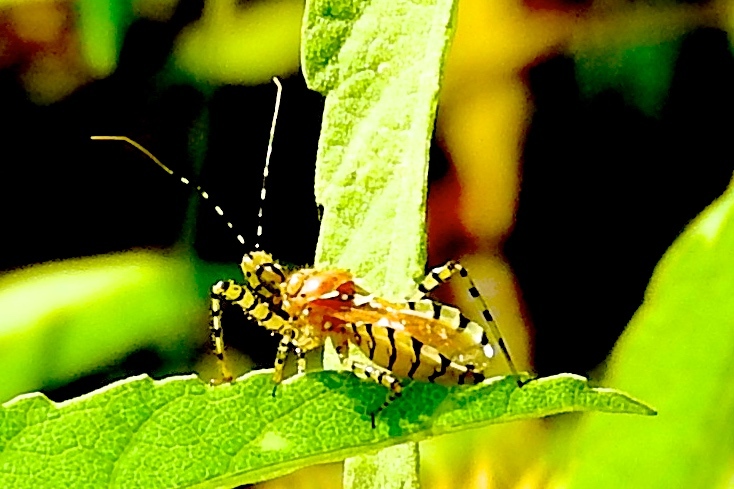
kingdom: Animalia
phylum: Arthropoda
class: Insecta
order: Hemiptera
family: Reduviidae
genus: Pselliopus
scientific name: Pselliopus
